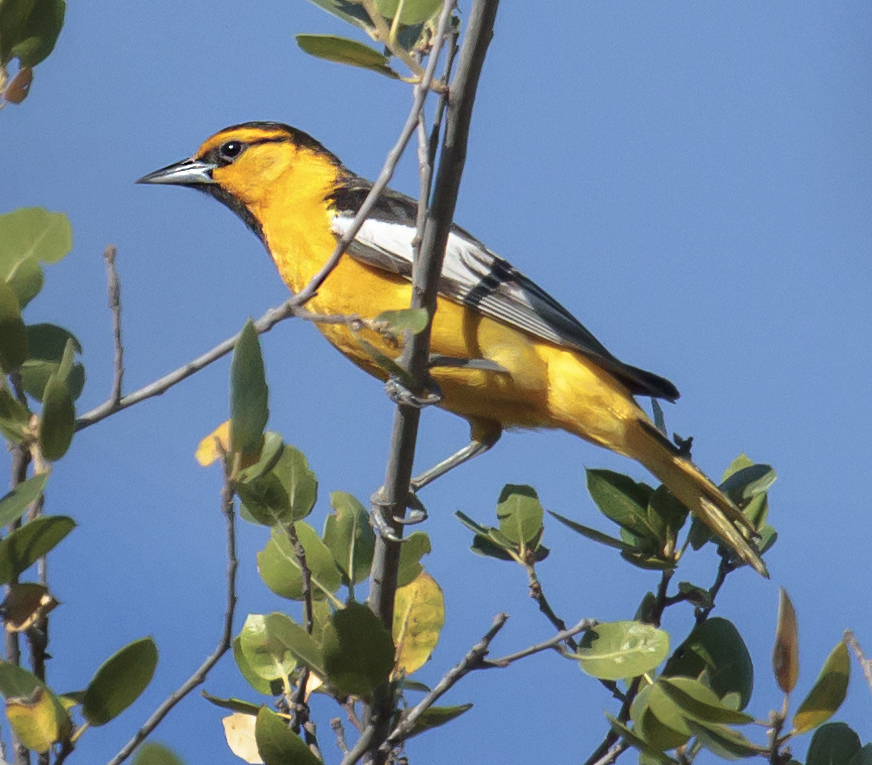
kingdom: Animalia
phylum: Chordata
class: Aves
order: Passeriformes
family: Icteridae
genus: Icterus
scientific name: Icterus bullockii
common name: Bullock's oriole
